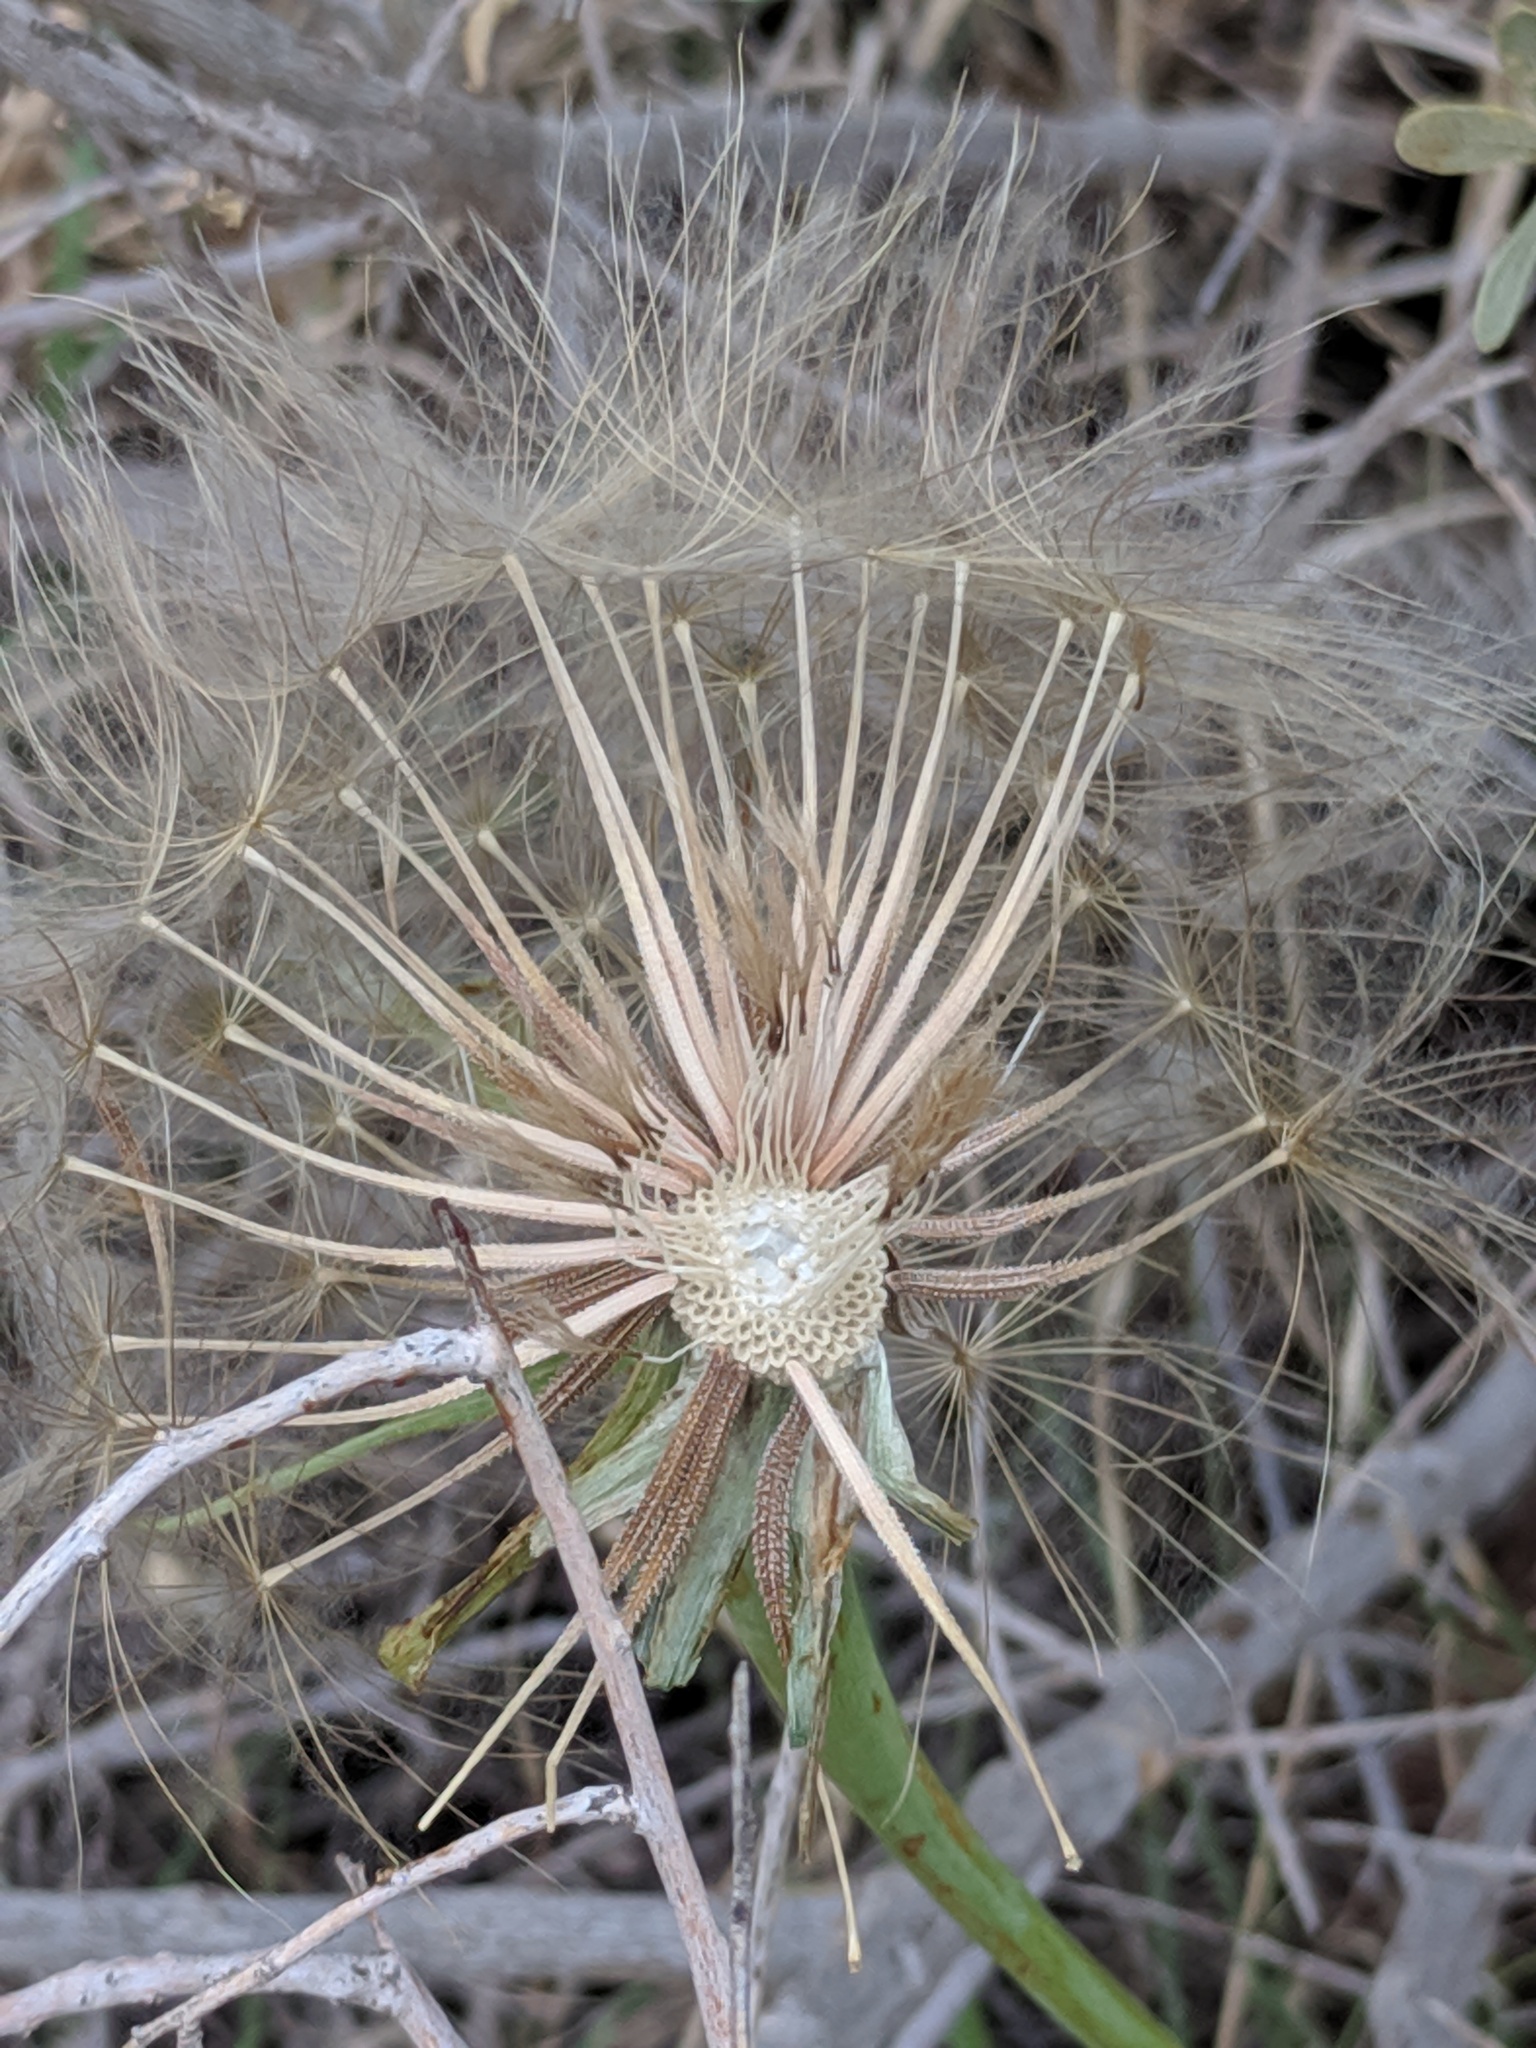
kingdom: Plantae
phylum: Tracheophyta
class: Magnoliopsida
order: Asterales
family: Asteraceae
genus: Tragopogon
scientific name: Tragopogon dubius
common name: Yellow salsify
